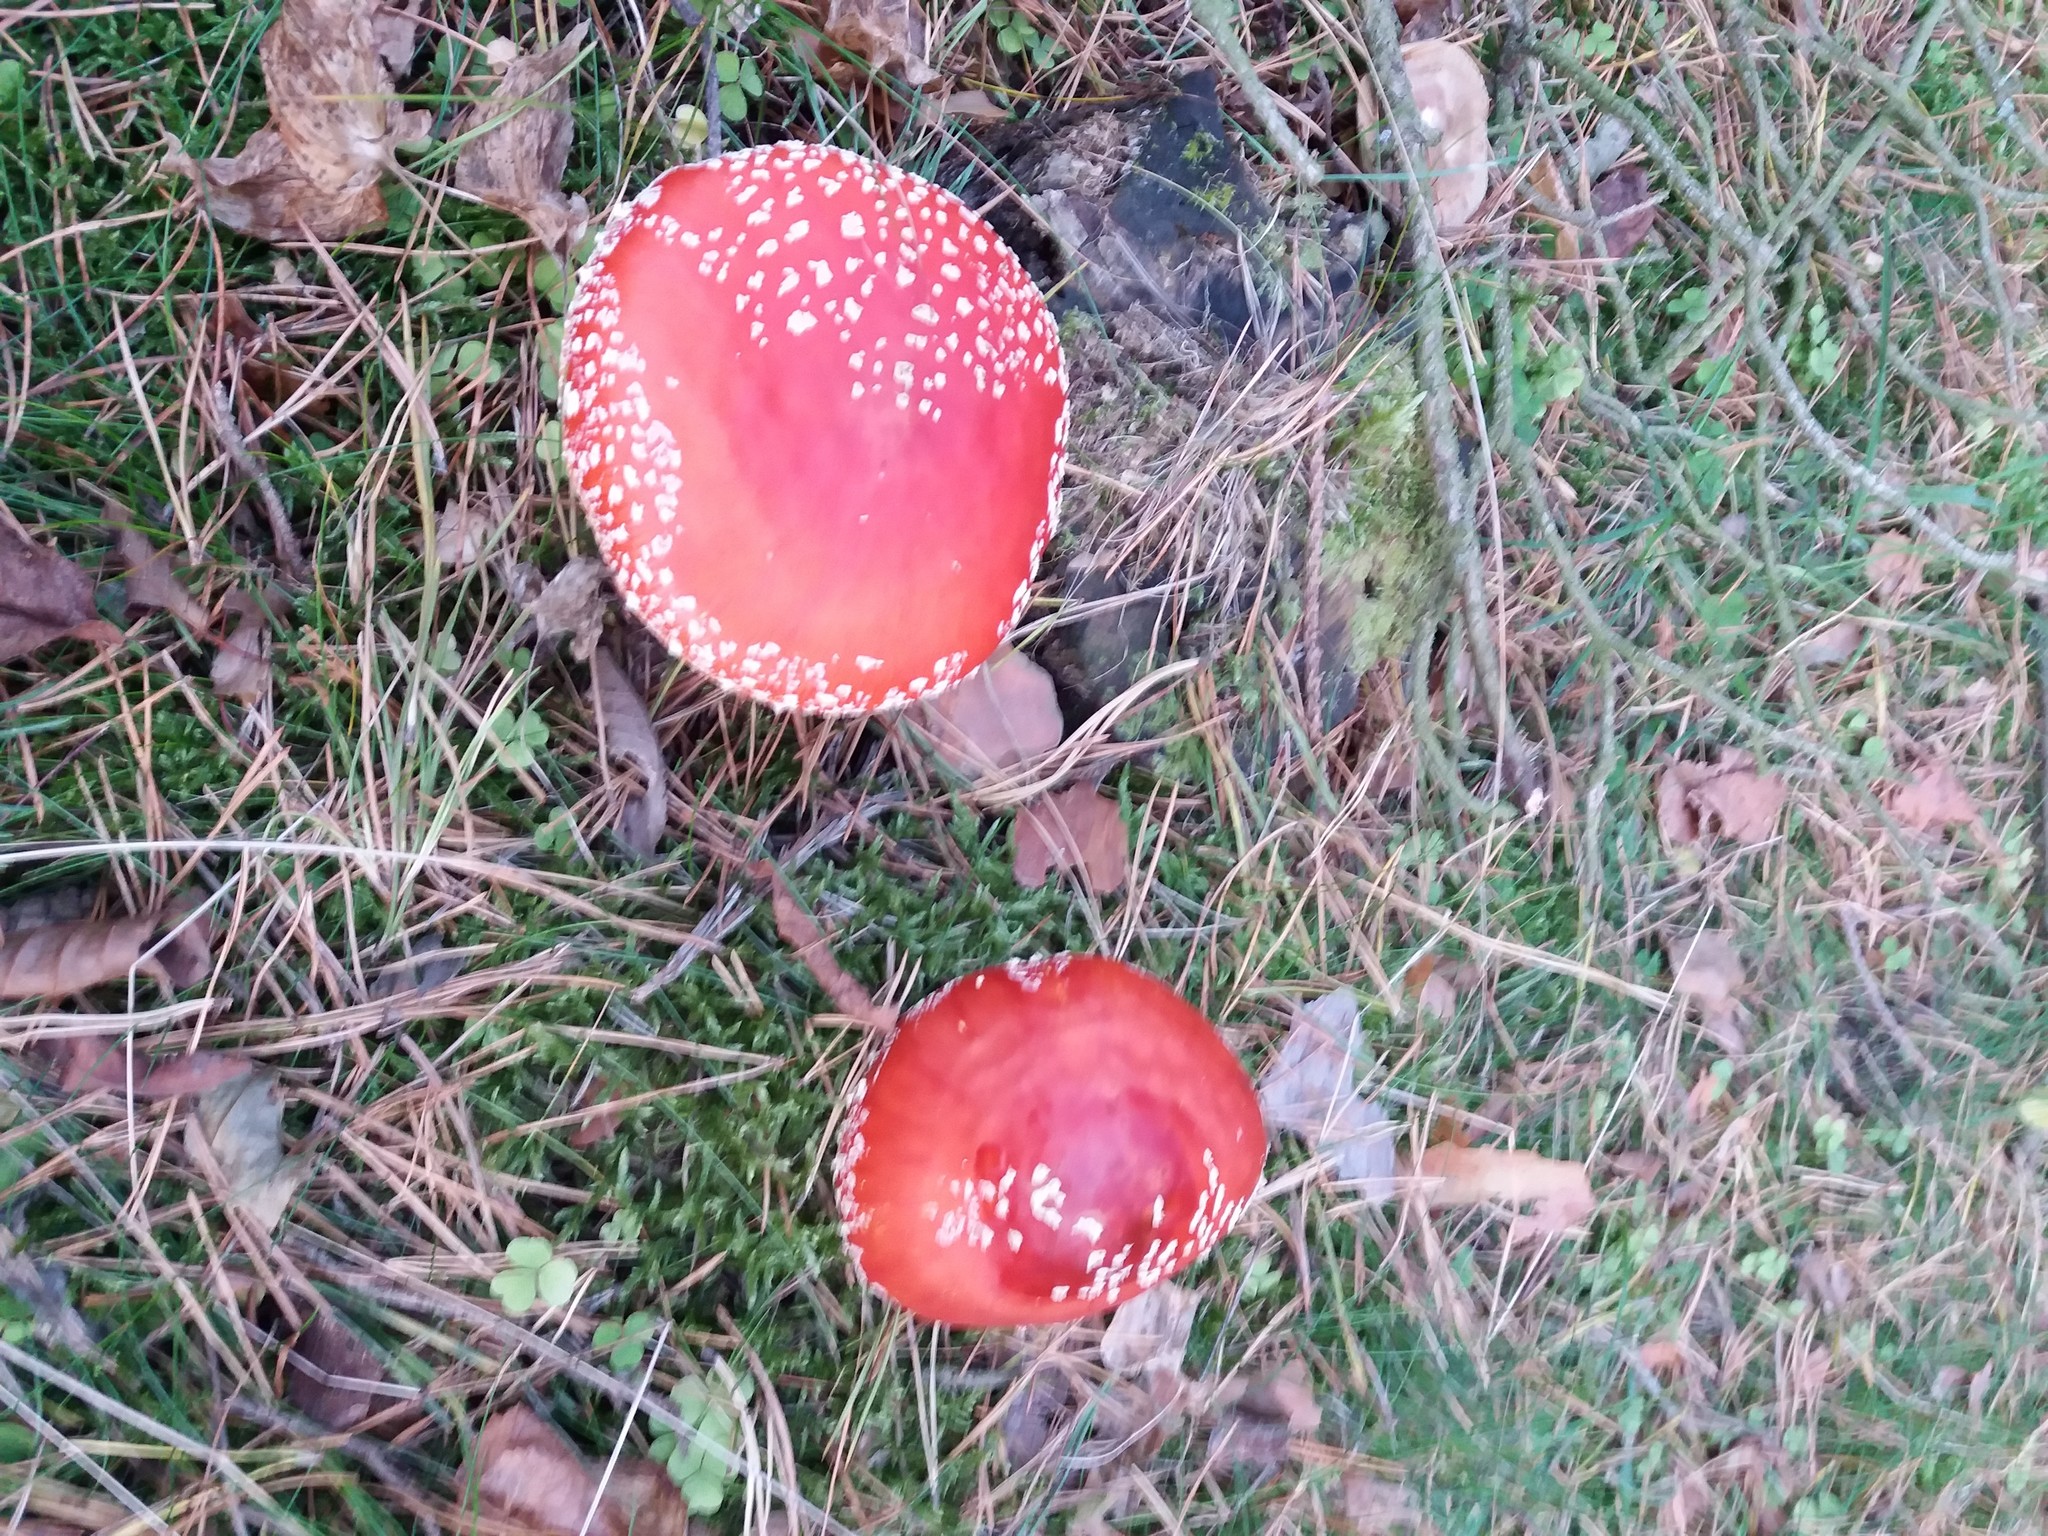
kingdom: Fungi
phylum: Basidiomycota
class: Agaricomycetes
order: Agaricales
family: Amanitaceae
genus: Amanita
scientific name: Amanita muscaria
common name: Fly agaric
